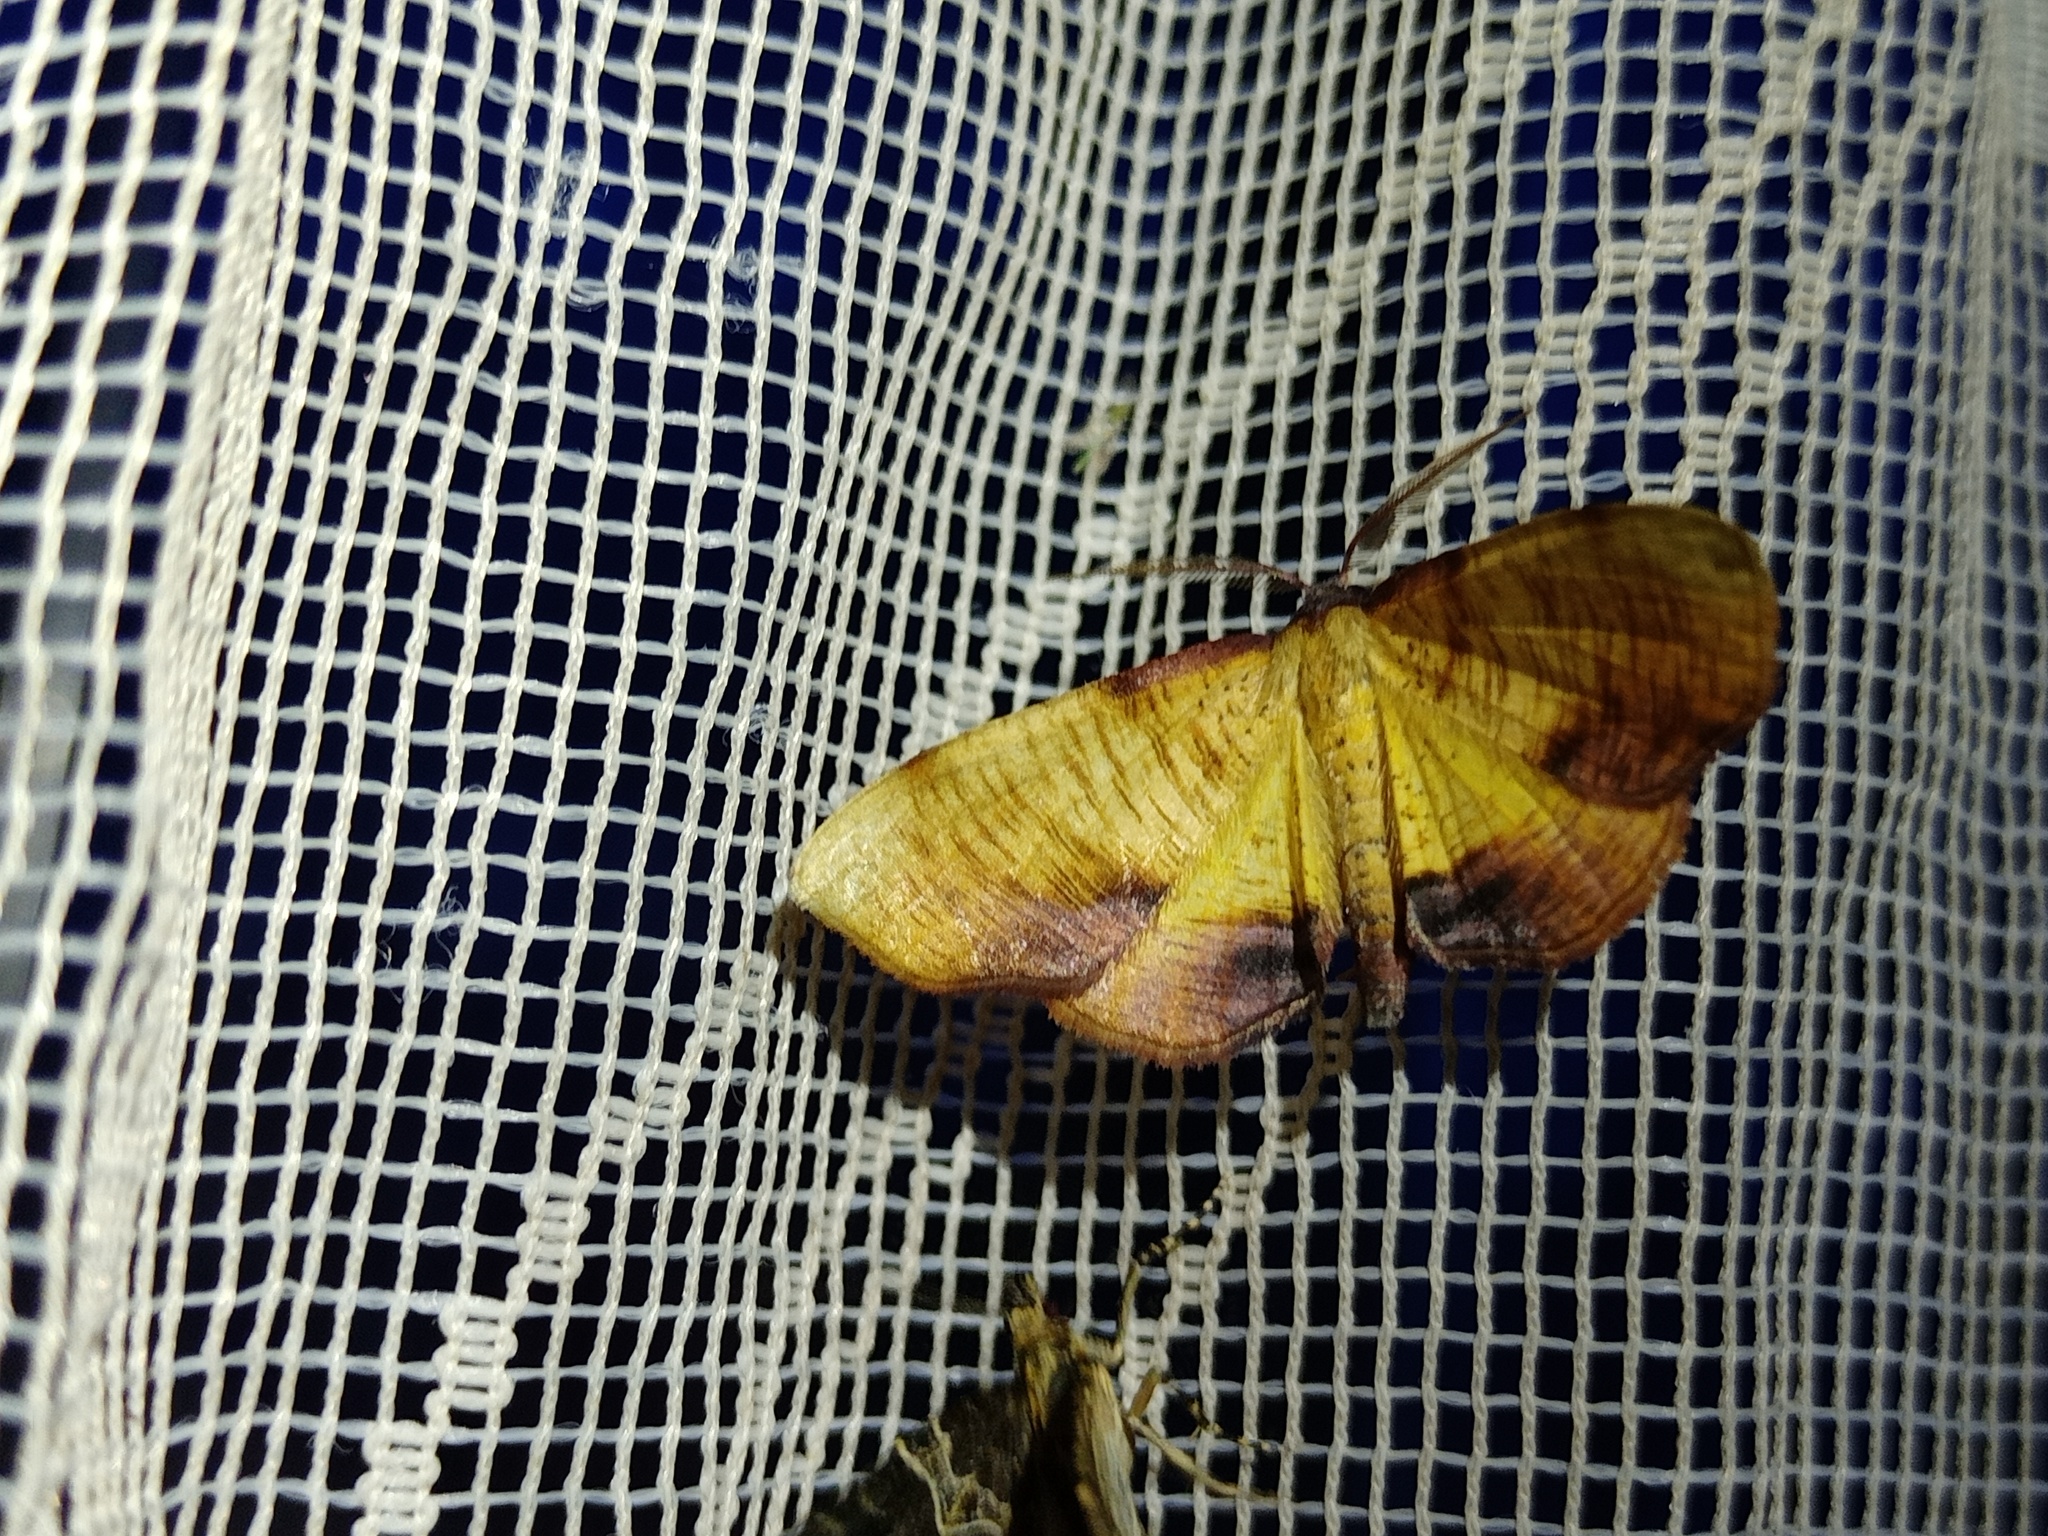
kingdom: Animalia
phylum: Arthropoda
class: Insecta
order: Lepidoptera
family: Geometridae
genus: Plagodis
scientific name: Plagodis dolabraria
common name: Scorched wing
